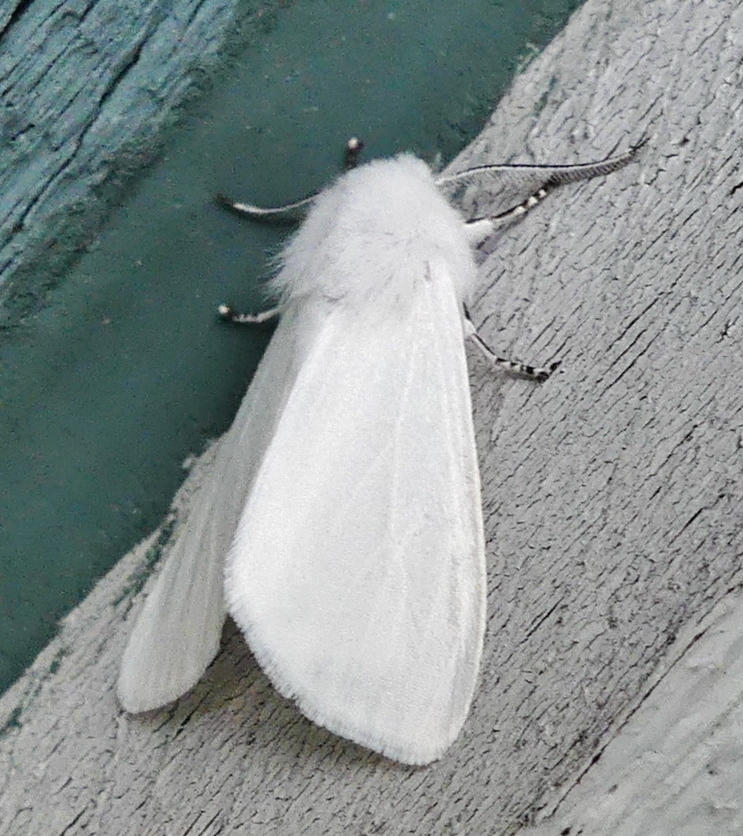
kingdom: Animalia
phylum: Arthropoda
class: Insecta
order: Lepidoptera
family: Erebidae
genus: Hyphantria
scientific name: Hyphantria cunea
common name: American white moth
